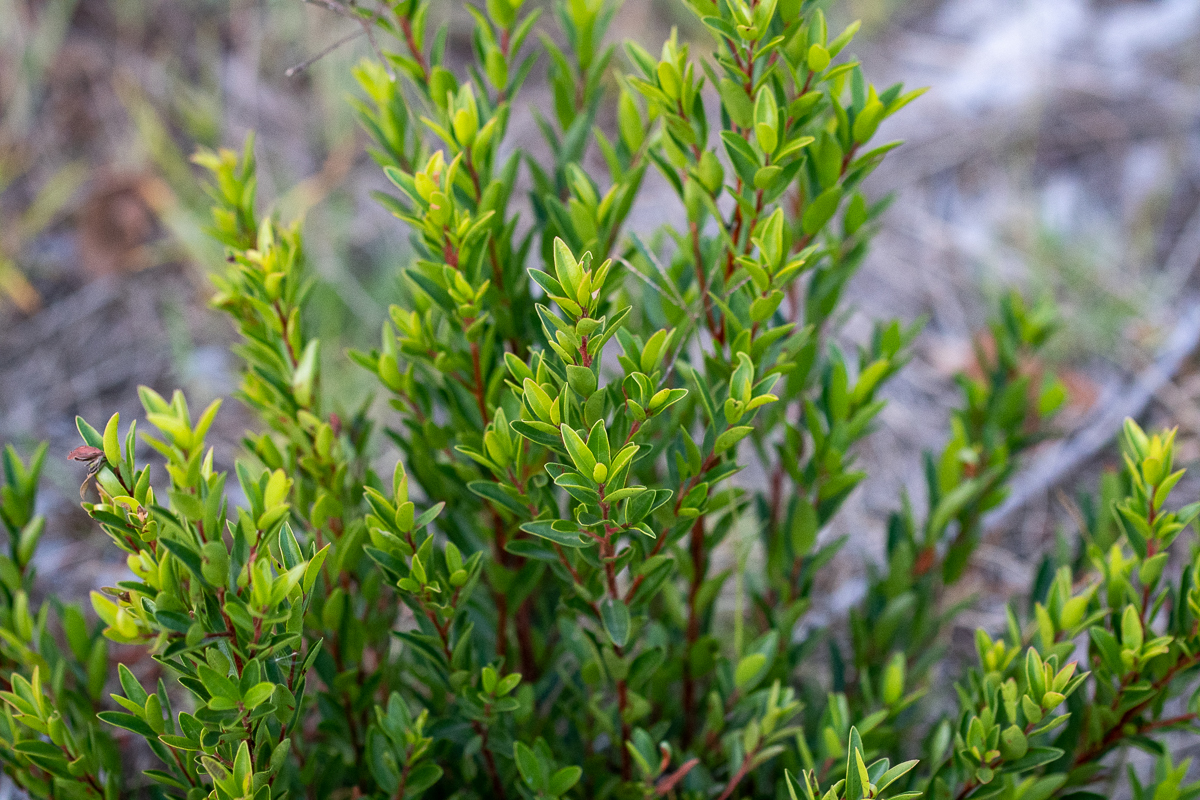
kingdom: Plantae
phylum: Tracheophyta
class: Magnoliopsida
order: Ericales
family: Ebenaceae
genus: Diospyros
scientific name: Diospyros glabra
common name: Fynbos star apple
